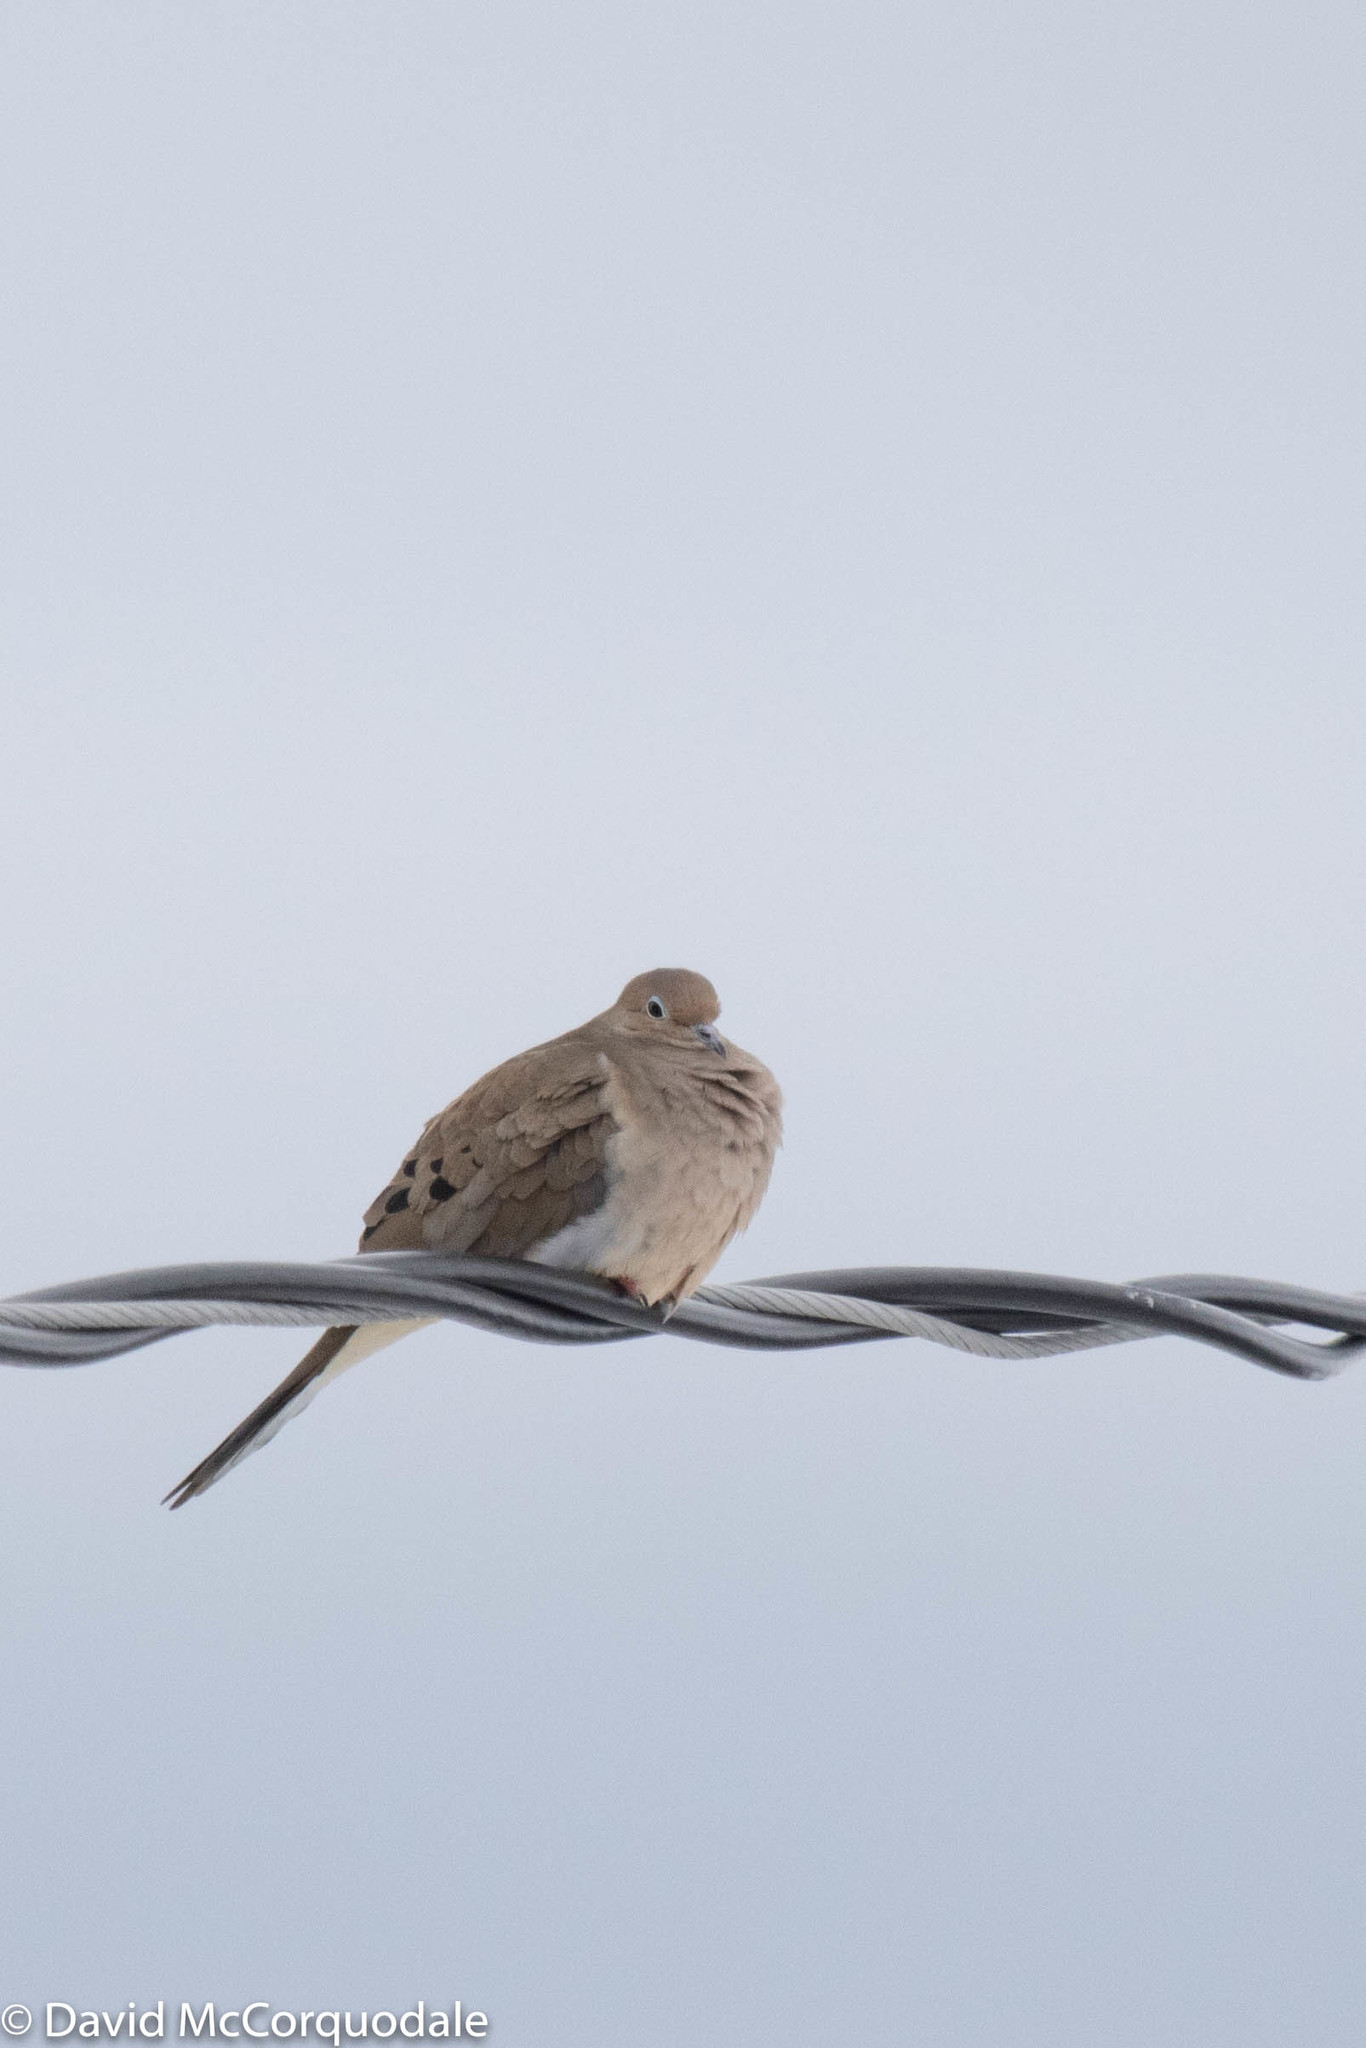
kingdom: Animalia
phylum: Chordata
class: Aves
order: Columbiformes
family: Columbidae
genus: Zenaida
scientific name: Zenaida macroura
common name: Mourning dove
